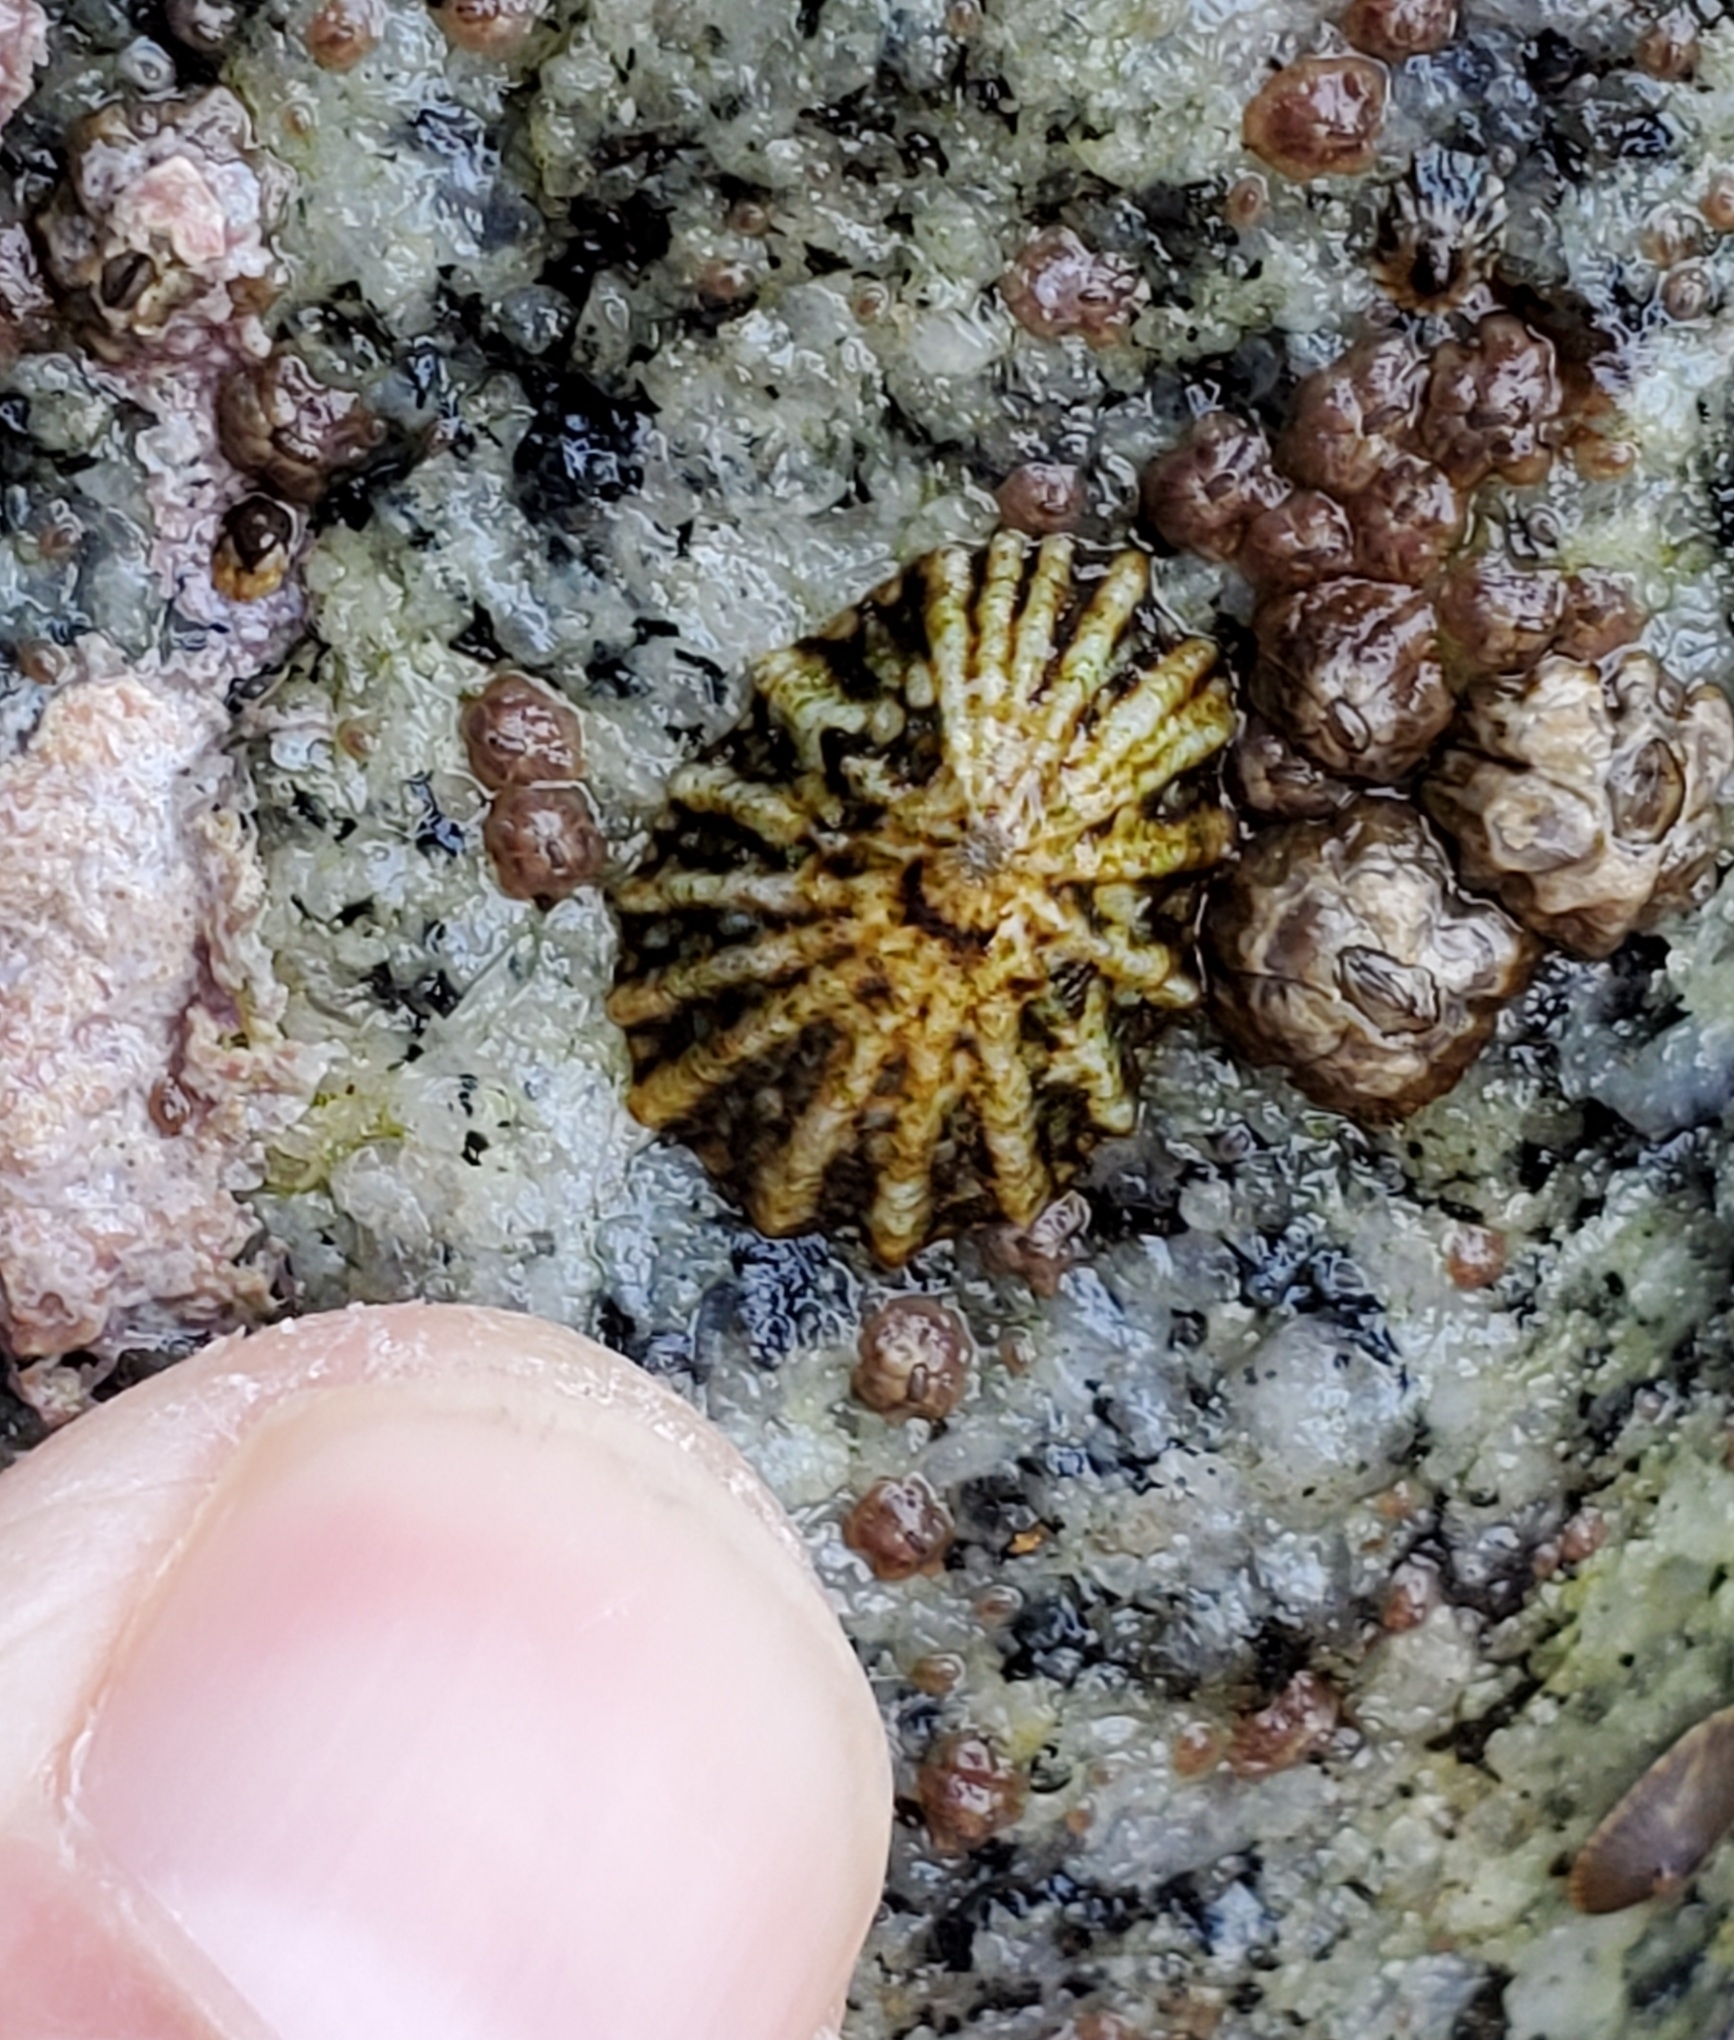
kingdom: Animalia
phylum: Mollusca
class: Gastropoda
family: Lottiidae
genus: Lottia
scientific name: Lottia scabra
